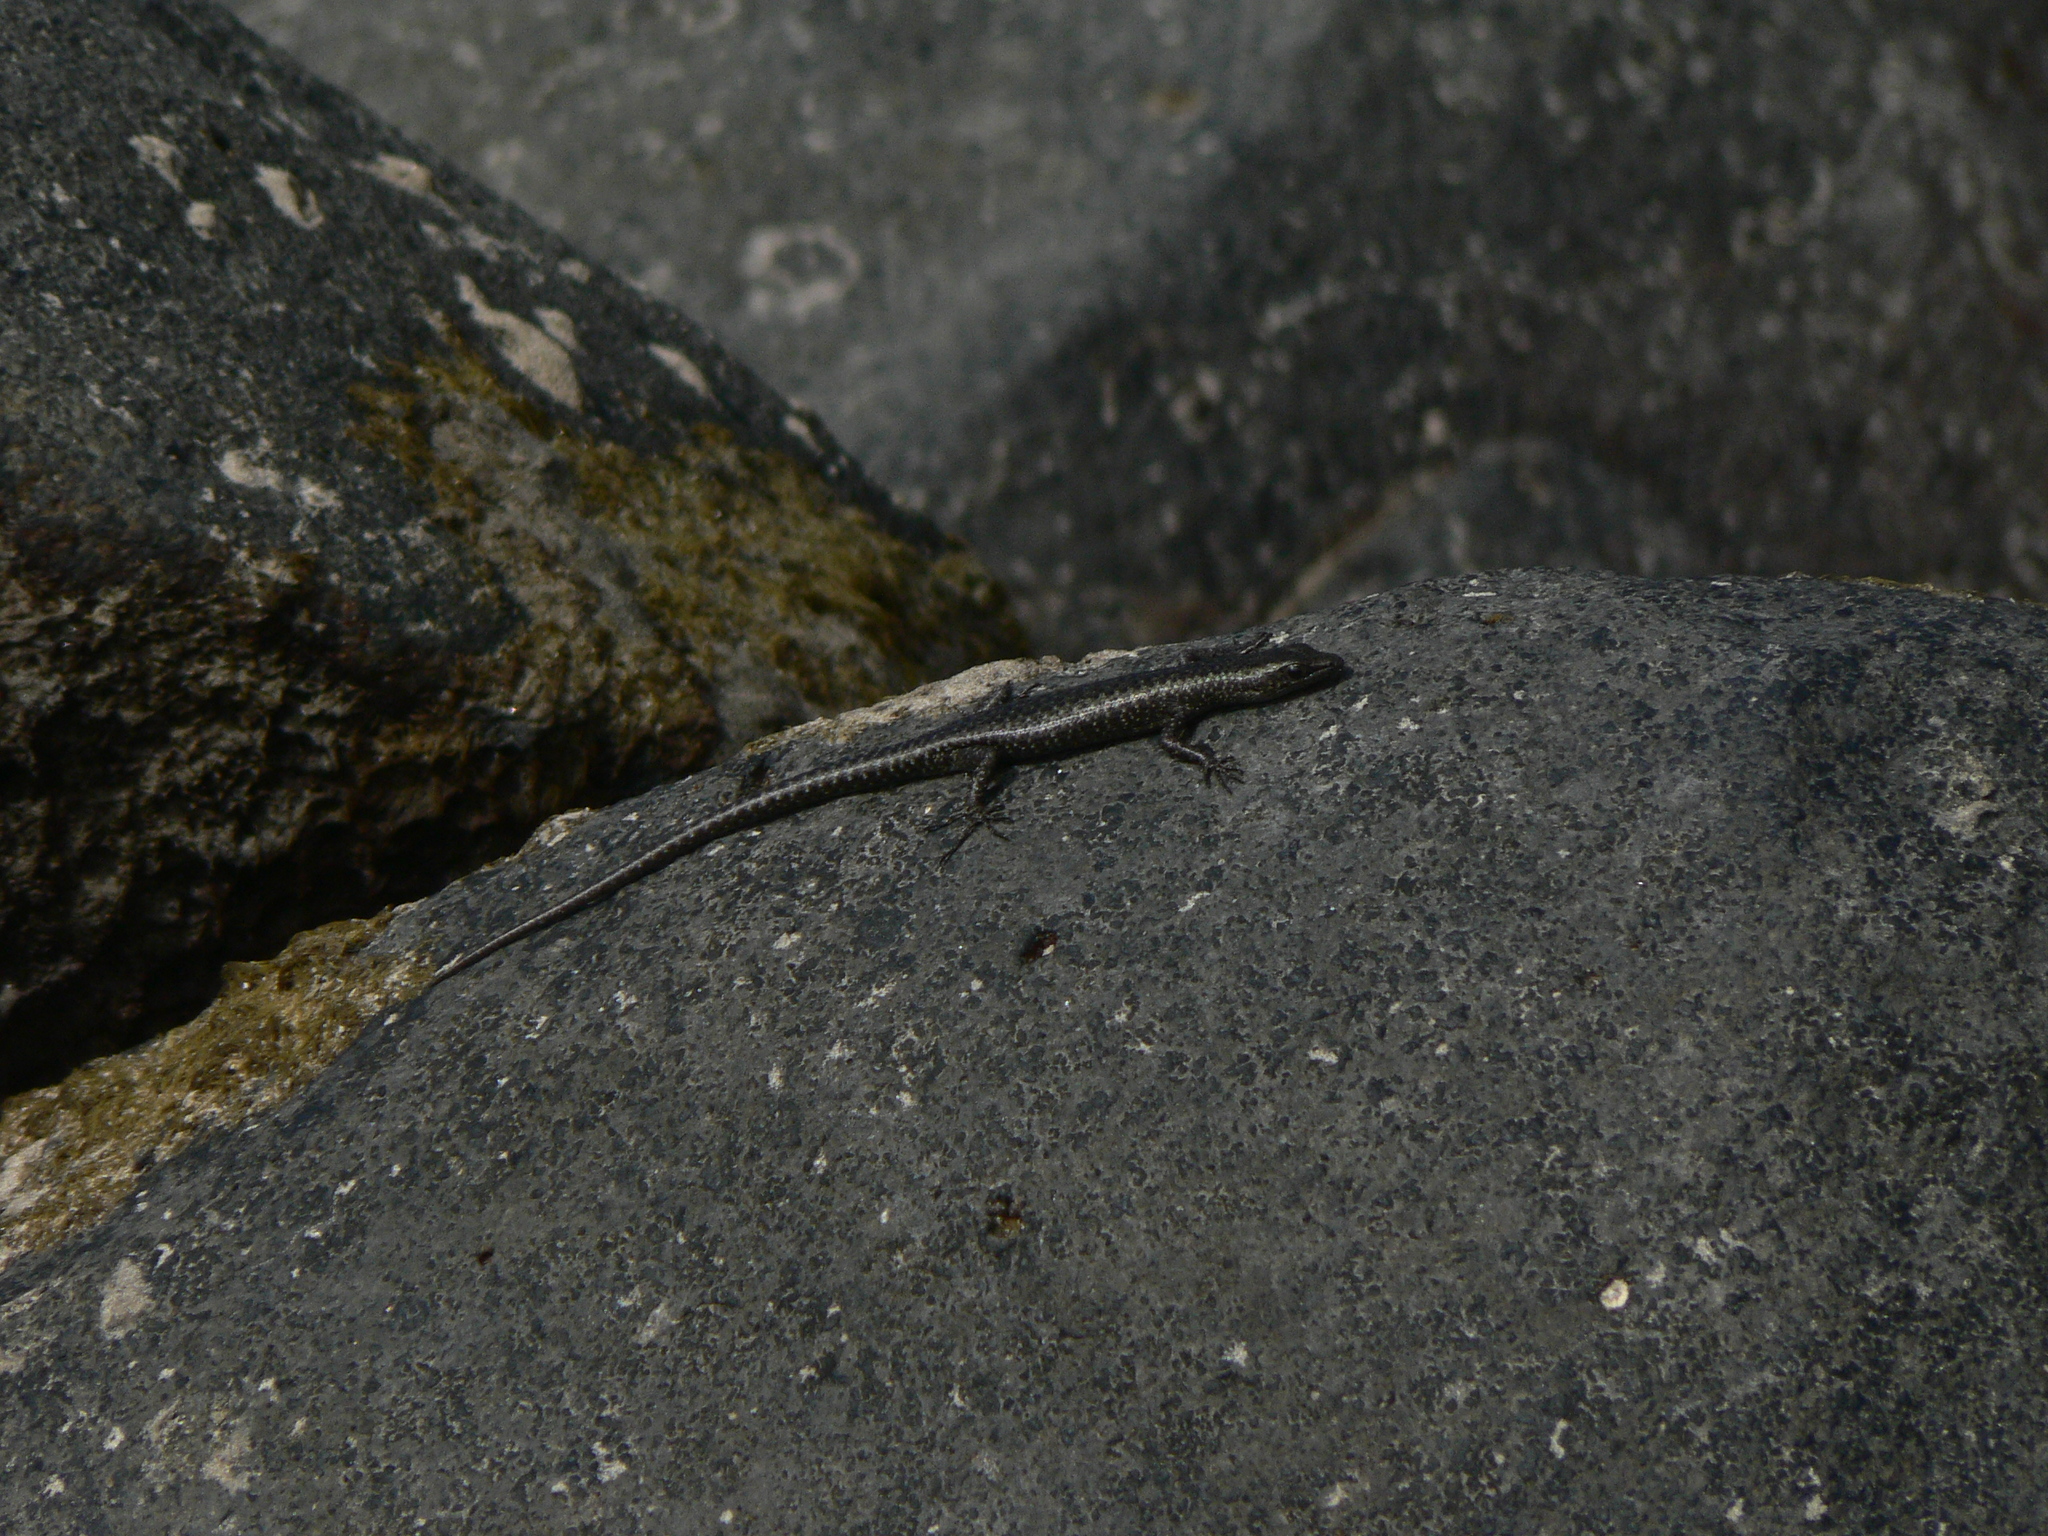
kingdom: Animalia
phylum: Chordata
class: Squamata
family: Scincidae
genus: Cryptoblepharus
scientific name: Cryptoblepharus litoralis
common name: Coastal snake-eyed skink
